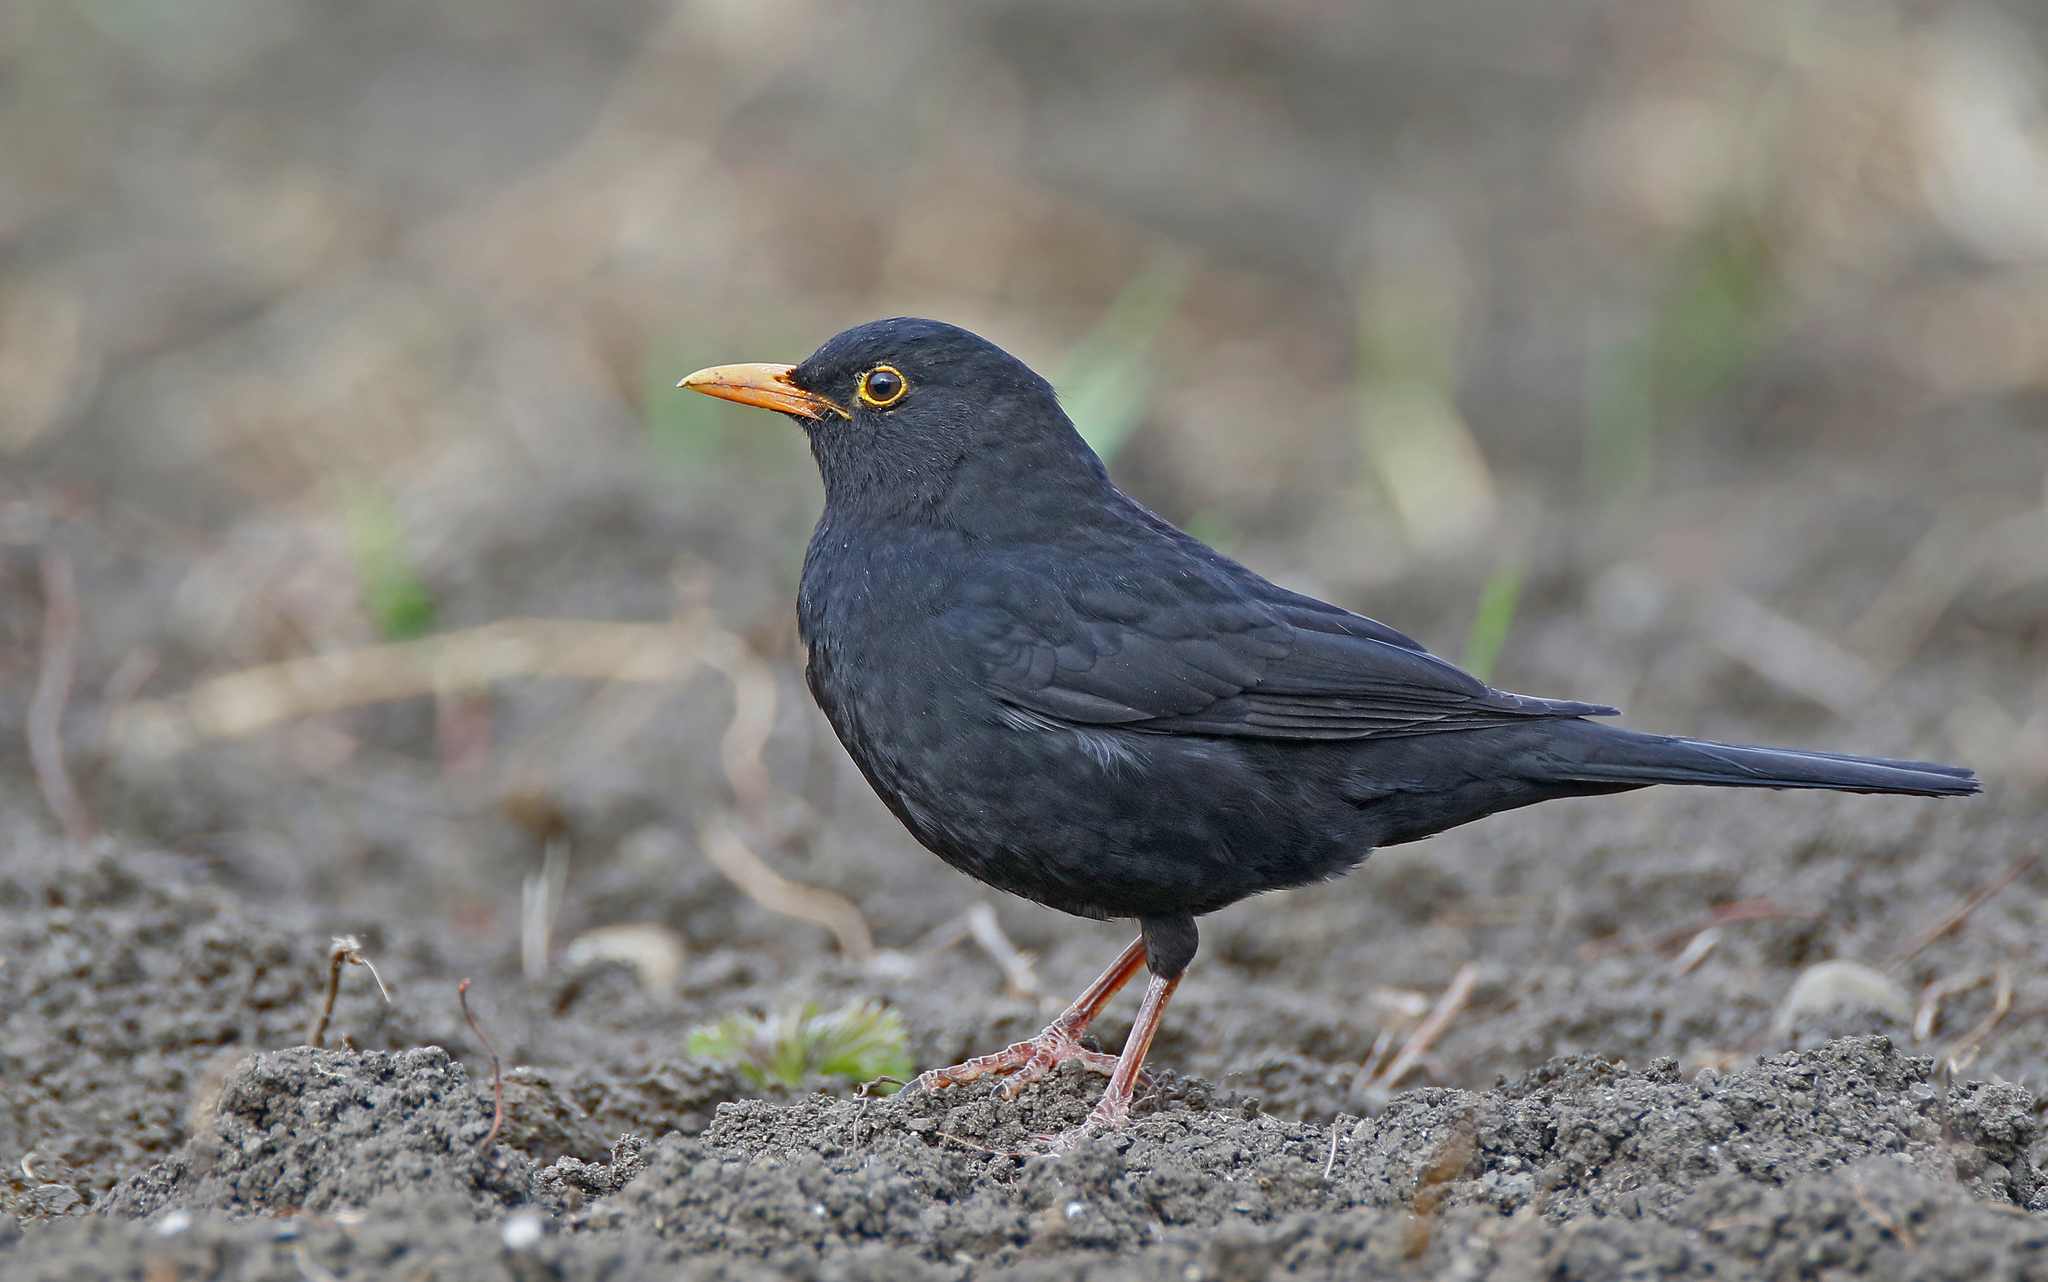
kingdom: Animalia
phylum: Chordata
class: Aves
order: Passeriformes
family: Turdidae
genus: Turdus
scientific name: Turdus merula
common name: Common blackbird
